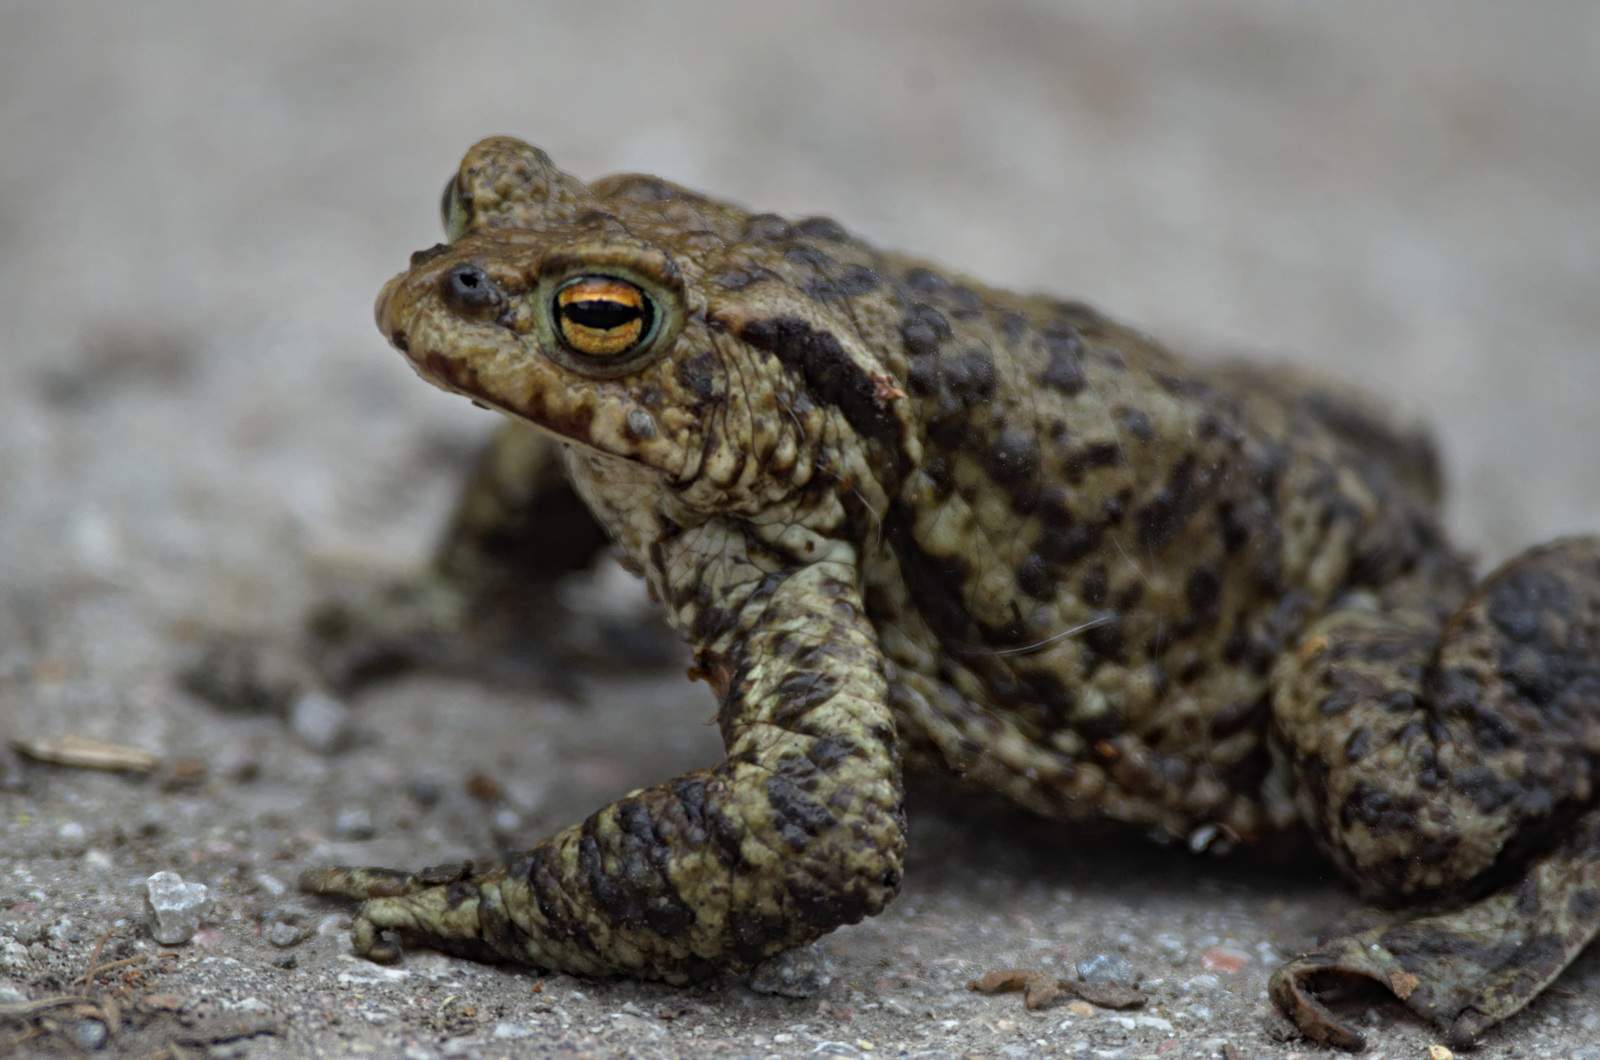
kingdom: Animalia
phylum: Chordata
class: Amphibia
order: Anura
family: Bufonidae
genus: Bufo
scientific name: Bufo bufo
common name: Common toad
